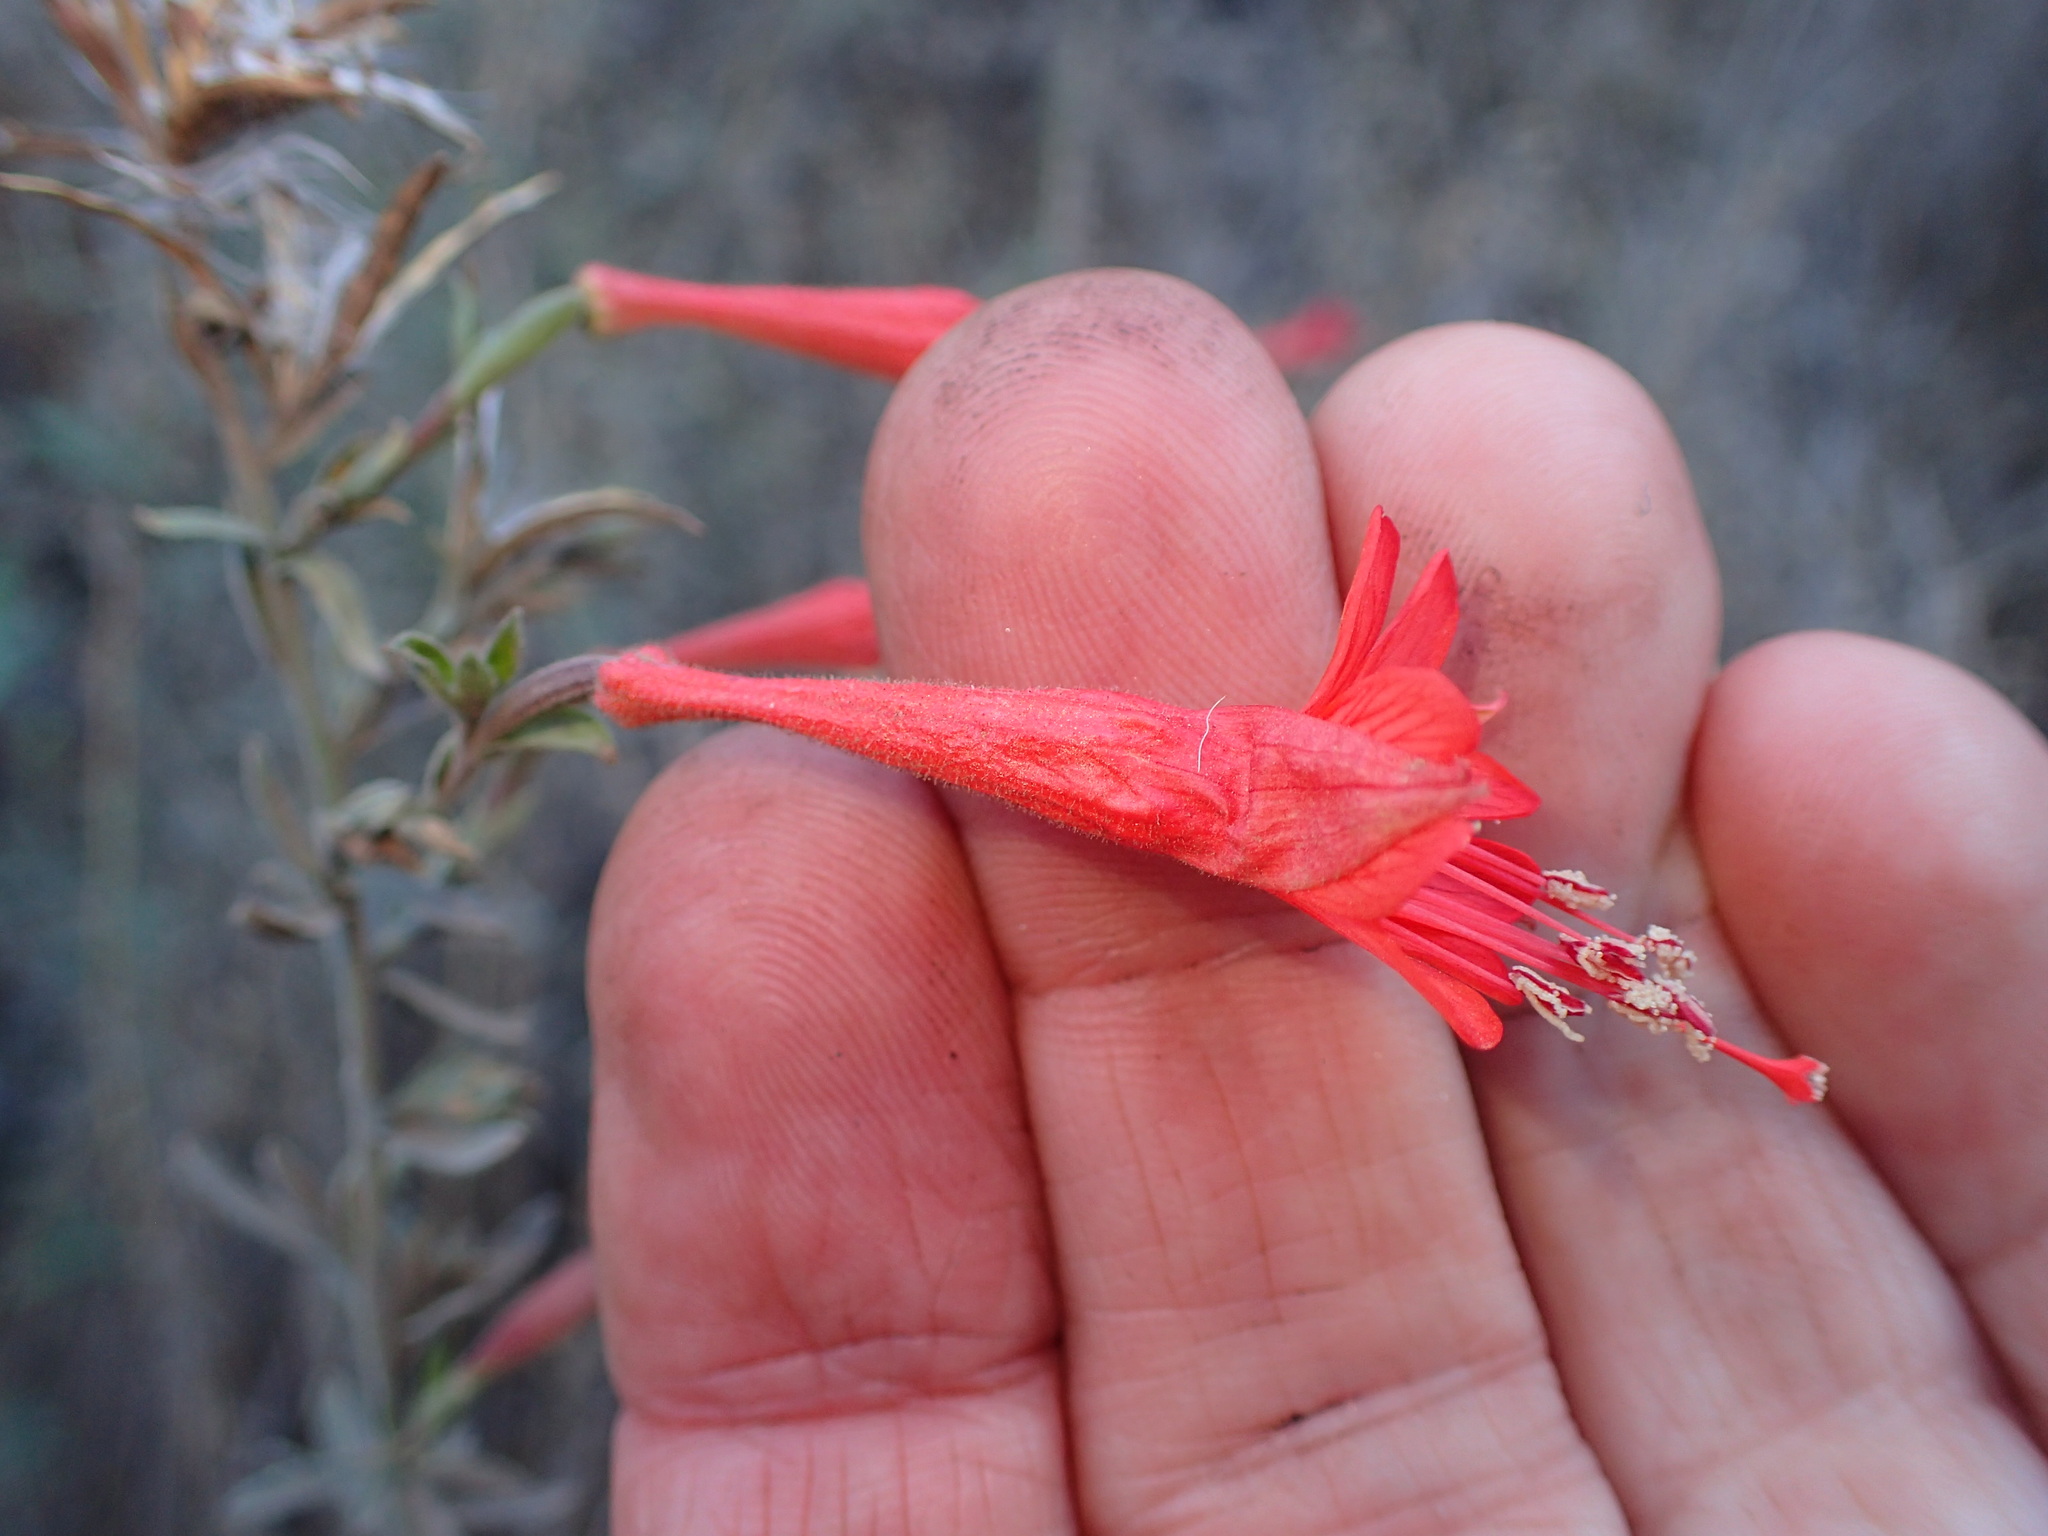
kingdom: Plantae
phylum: Tracheophyta
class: Magnoliopsida
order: Myrtales
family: Onagraceae
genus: Epilobium
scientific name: Epilobium canum
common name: California-fuchsia
